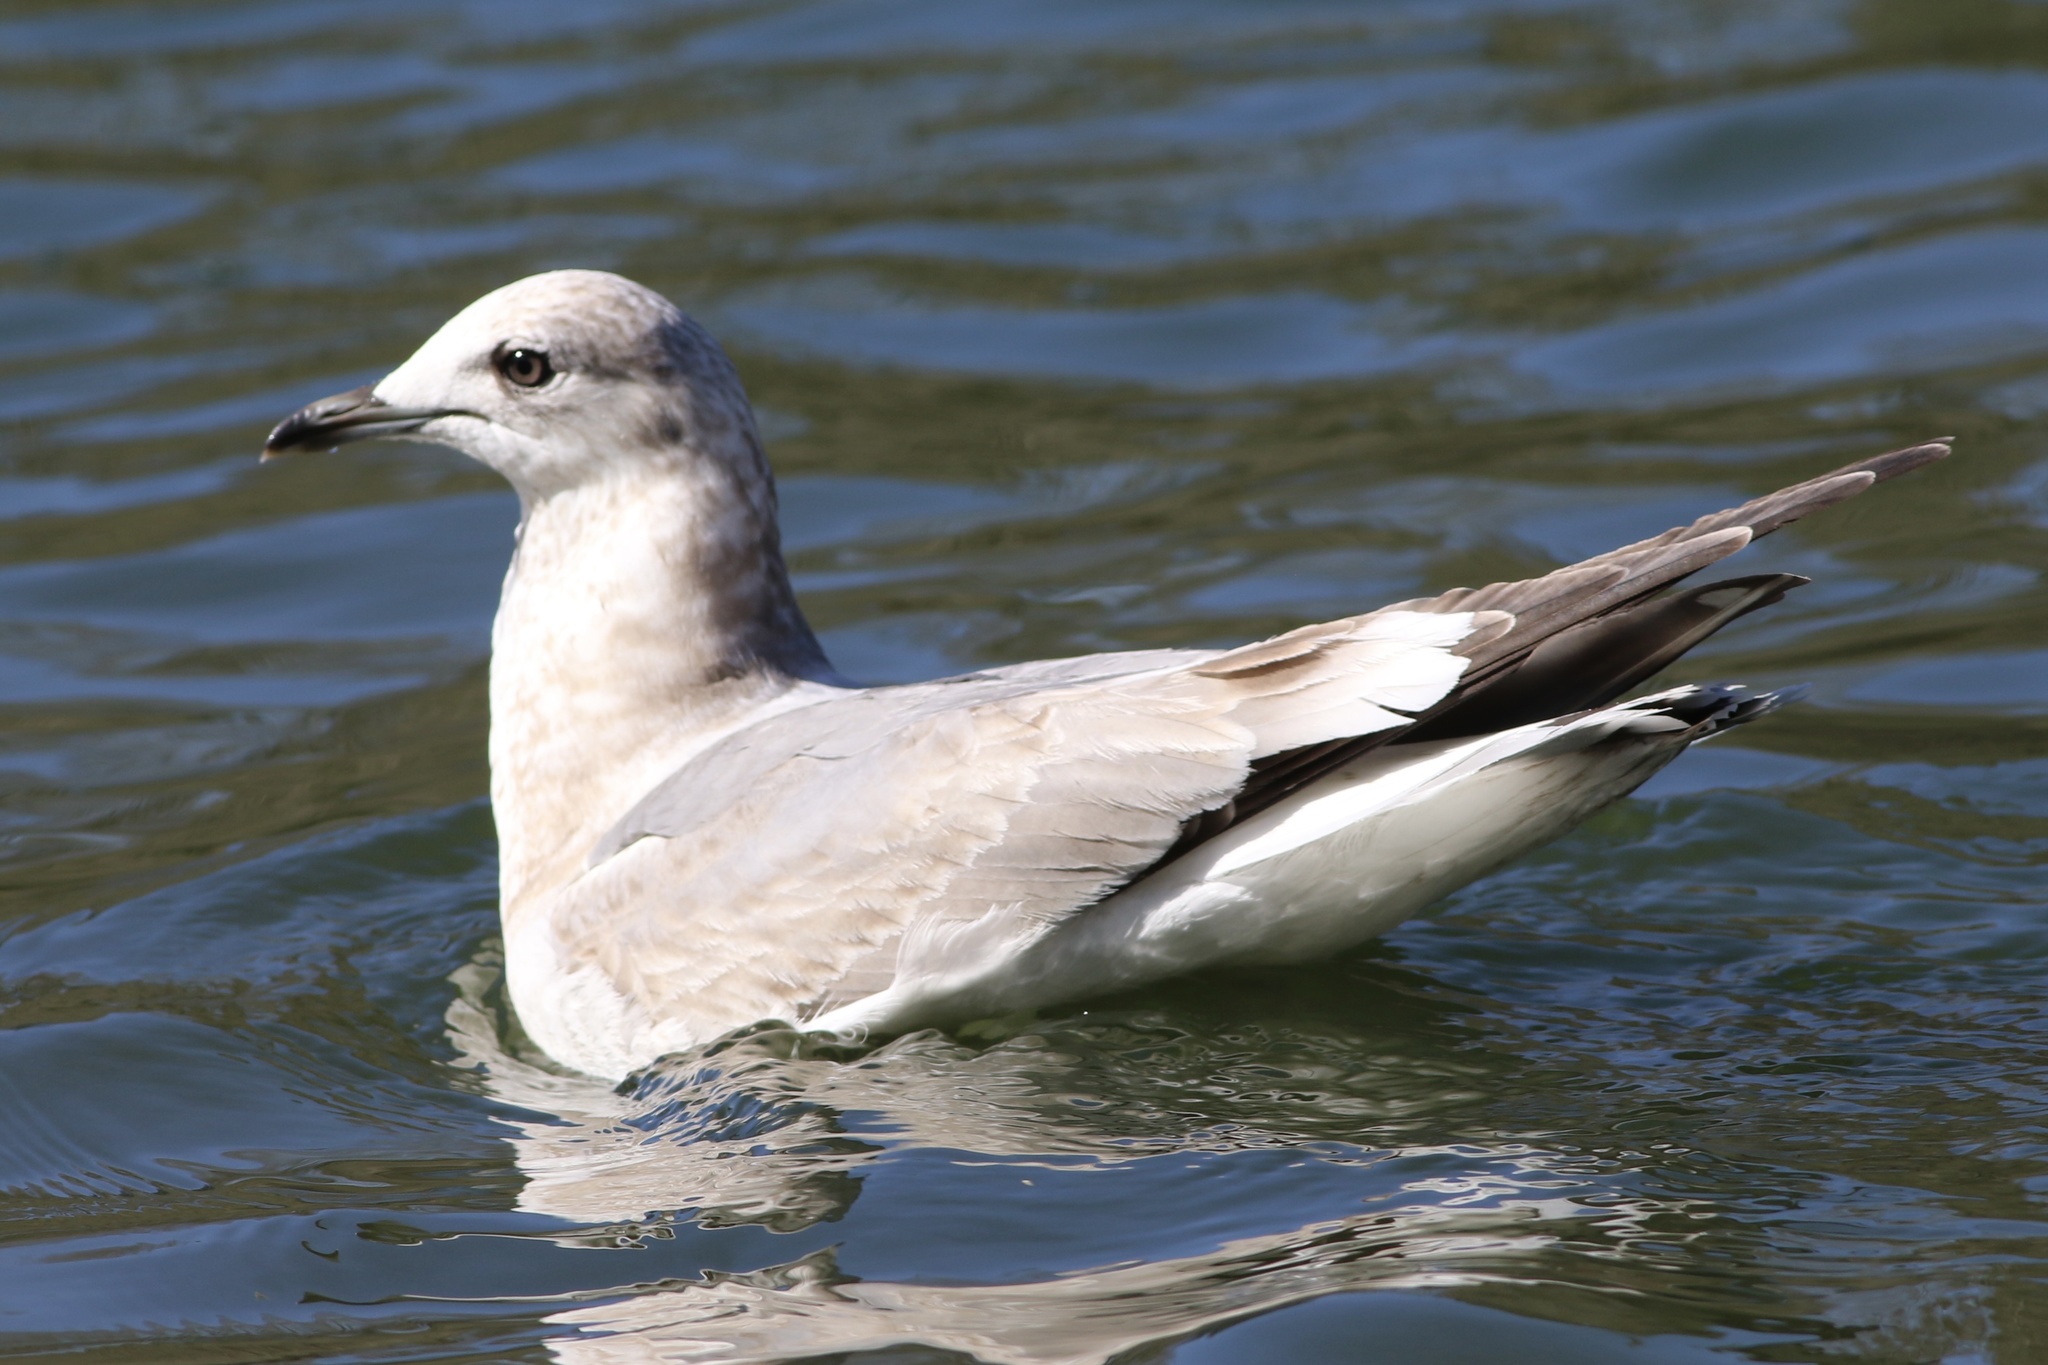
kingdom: Animalia
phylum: Chordata
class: Aves
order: Charadriiformes
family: Laridae
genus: Larus
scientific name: Larus brachyrhynchus
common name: Short-billed gull
